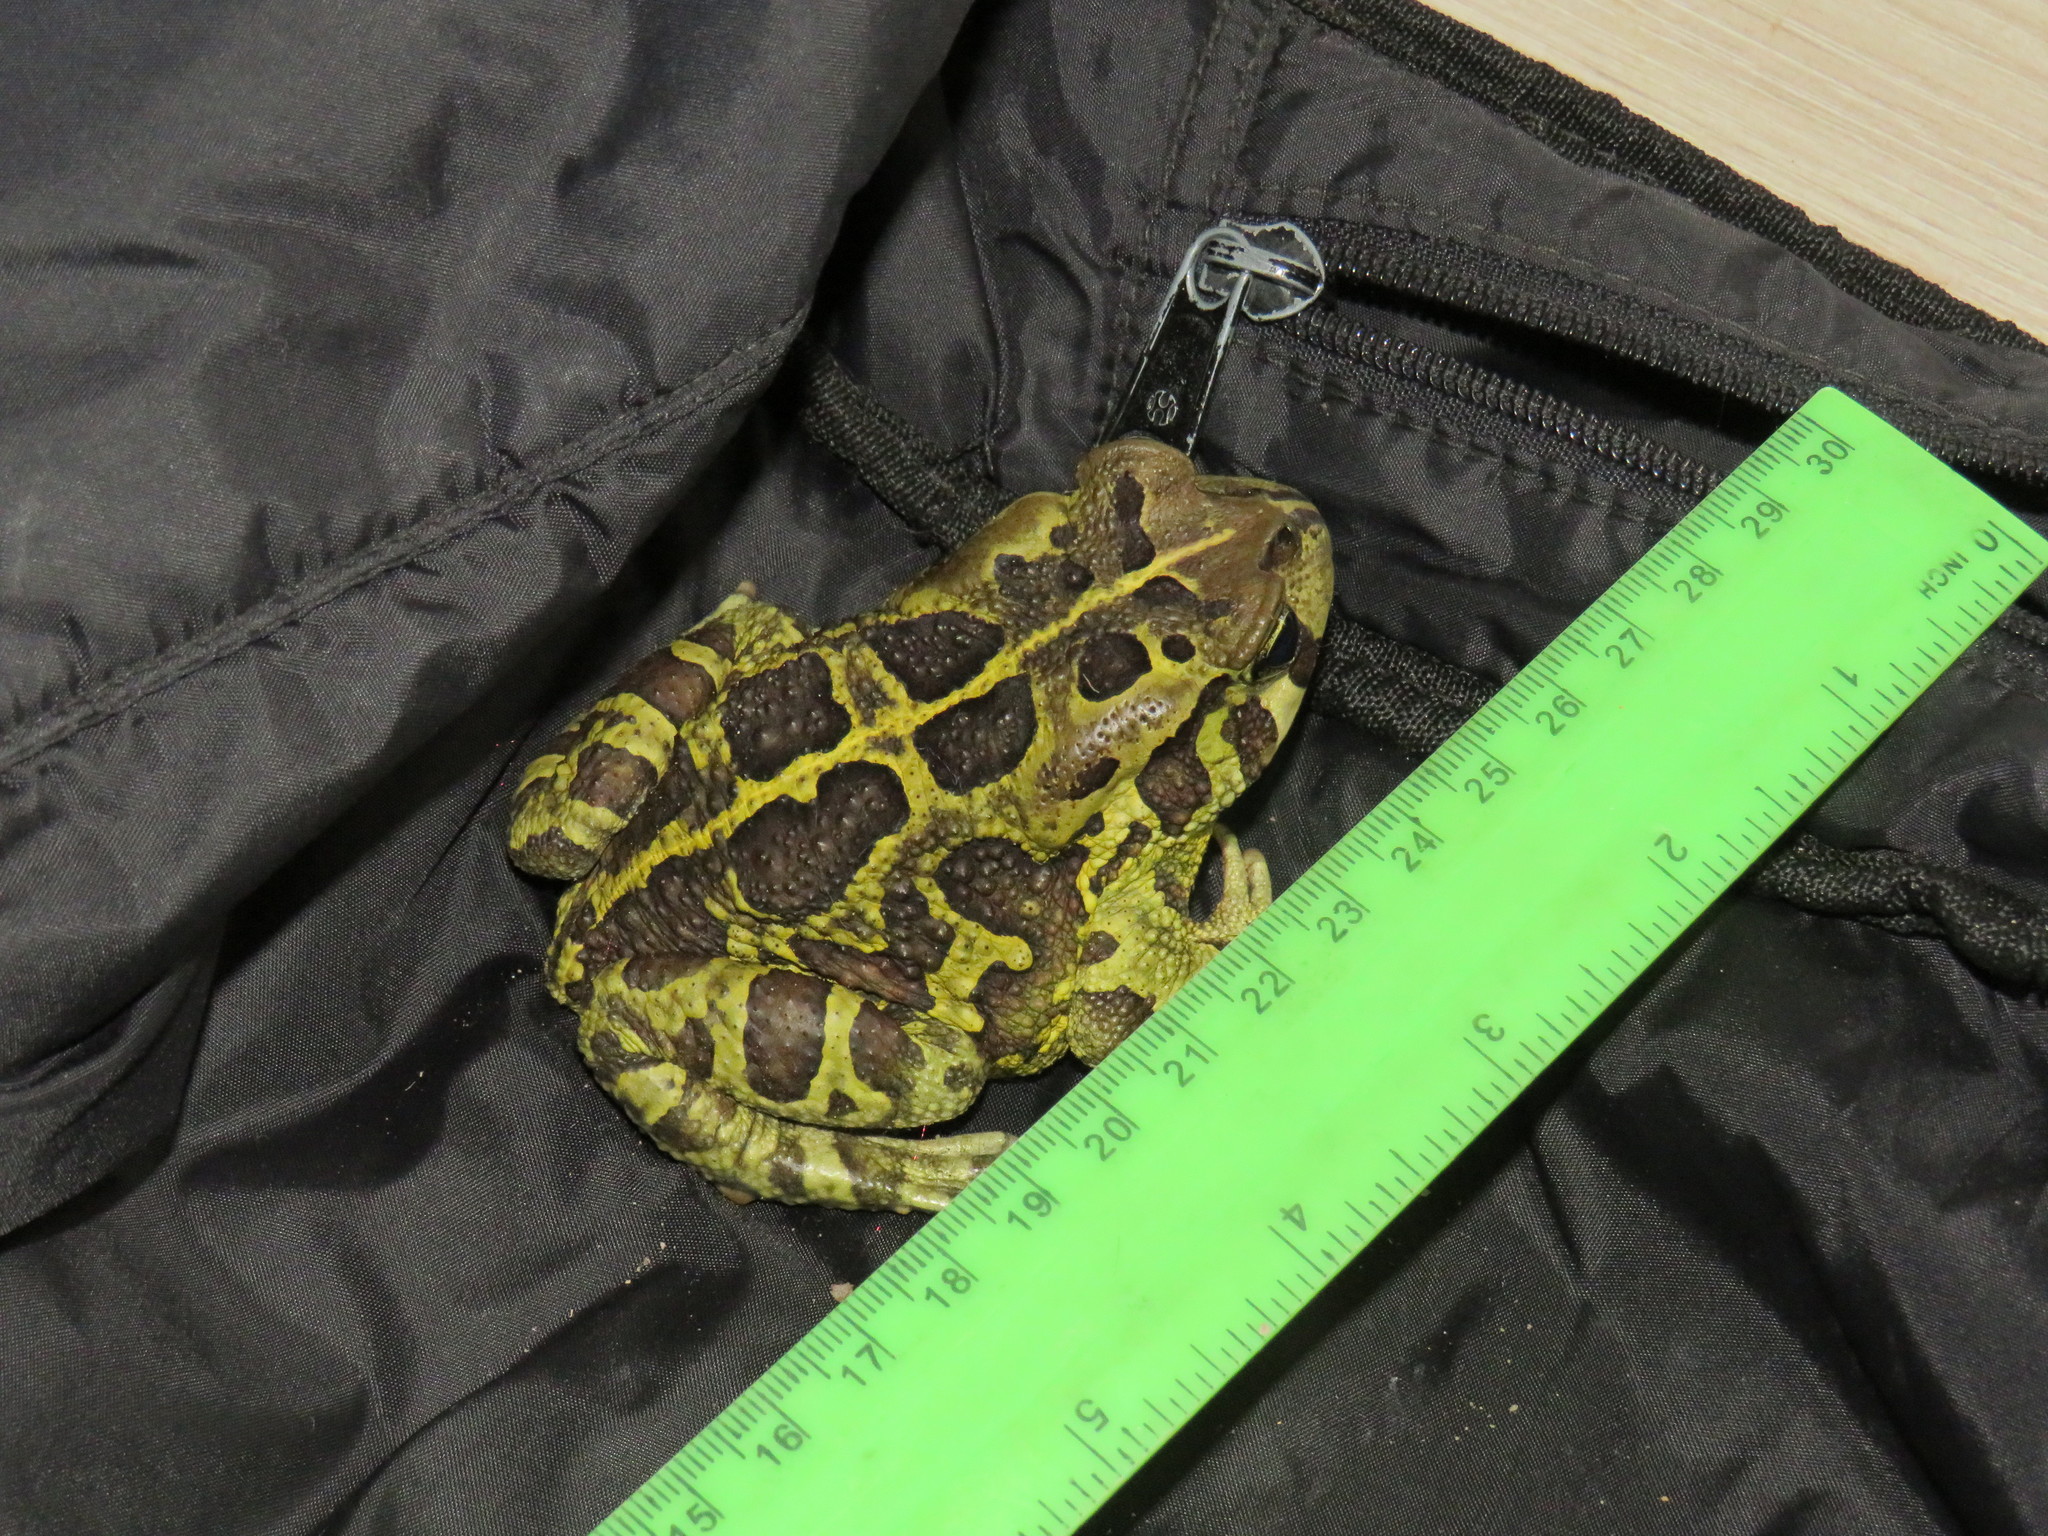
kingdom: Animalia
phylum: Chordata
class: Amphibia
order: Anura
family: Bufonidae
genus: Sclerophrys
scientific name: Sclerophrys pantherina
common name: Panther toad
